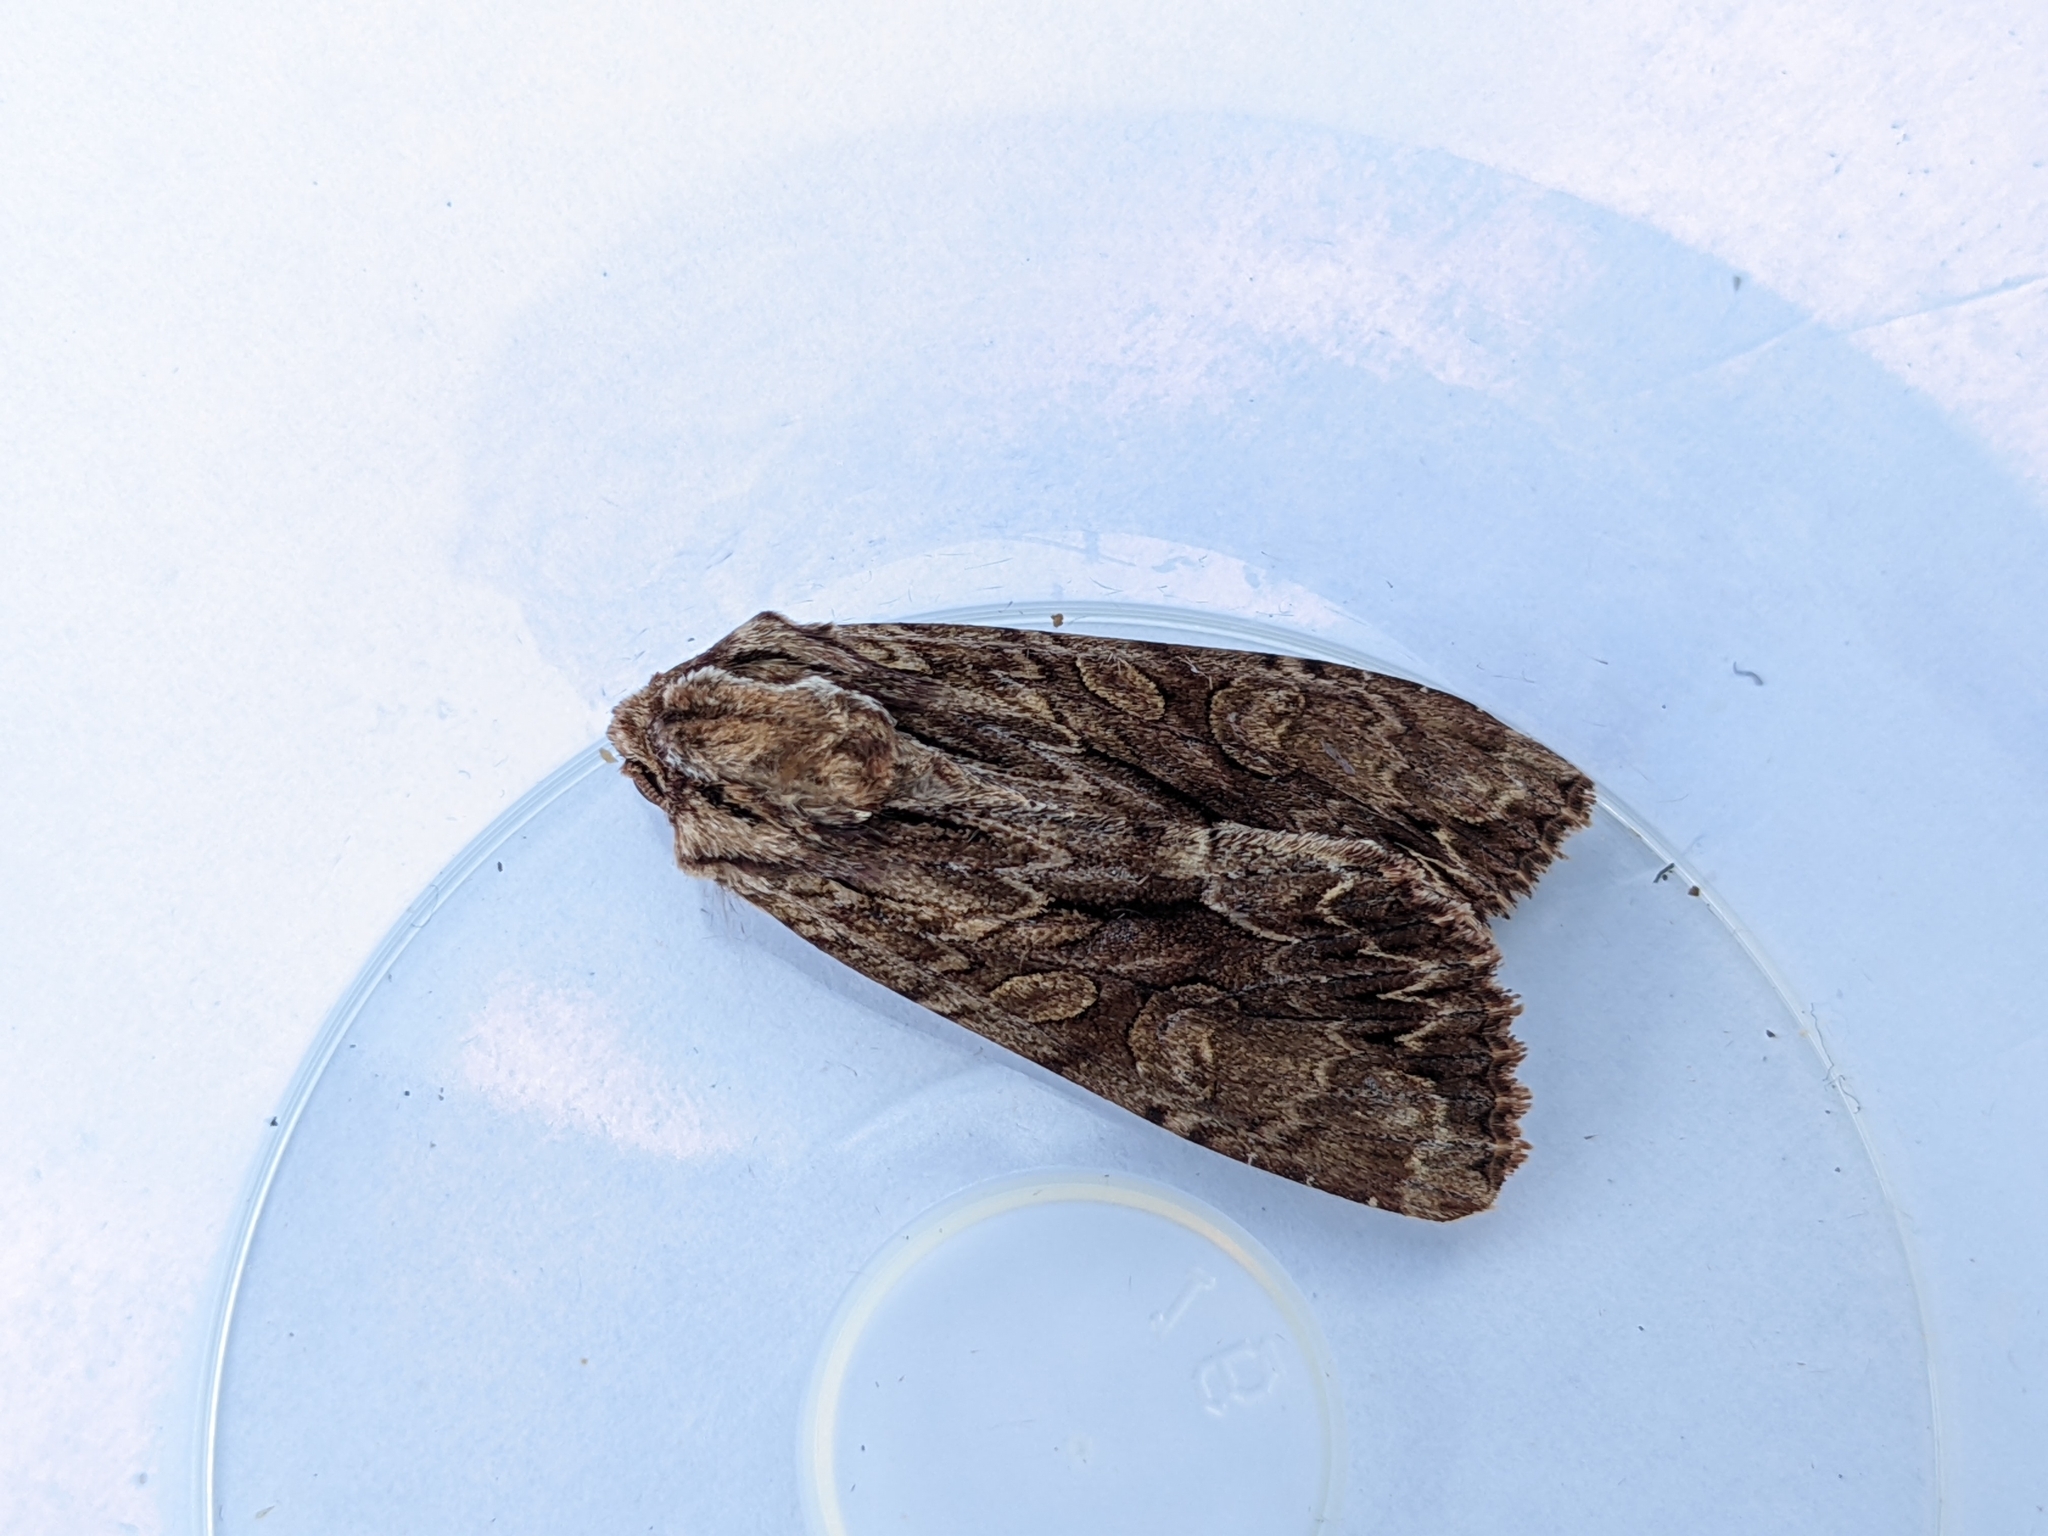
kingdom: Animalia
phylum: Arthropoda
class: Insecta
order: Lepidoptera
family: Noctuidae
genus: Apamea
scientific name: Apamea monoglypha
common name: Dark arches
